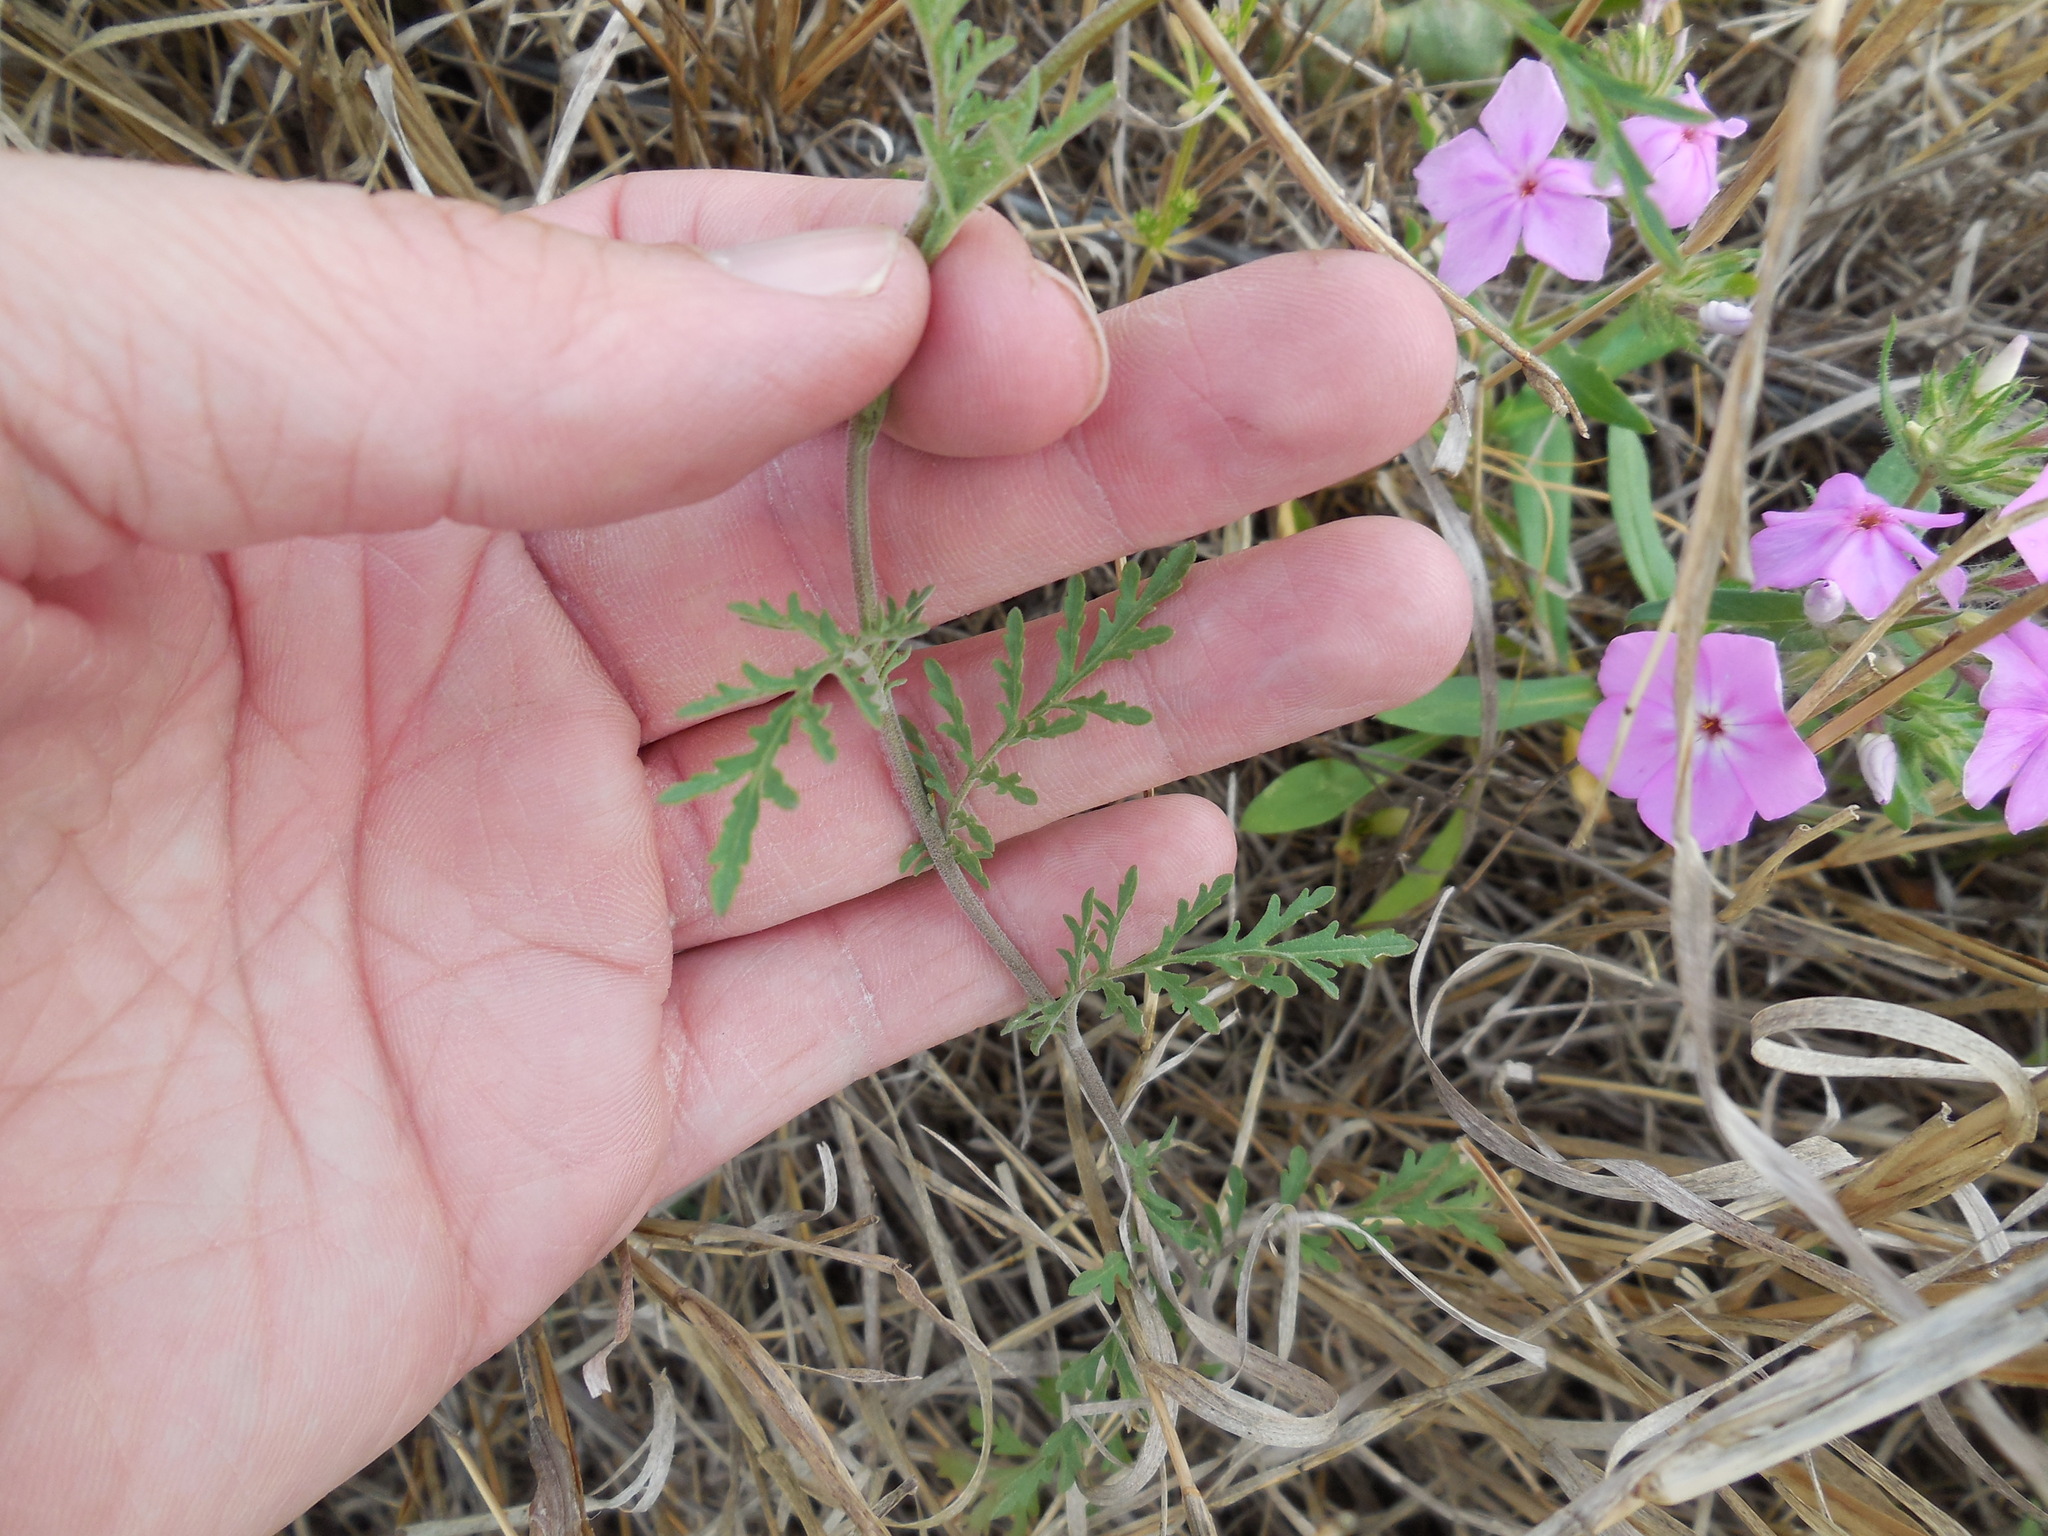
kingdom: Plantae
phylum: Tracheophyta
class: Magnoliopsida
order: Brassicales
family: Brassicaceae
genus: Descurainia
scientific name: Descurainia pinnata
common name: Western tansy mustard
